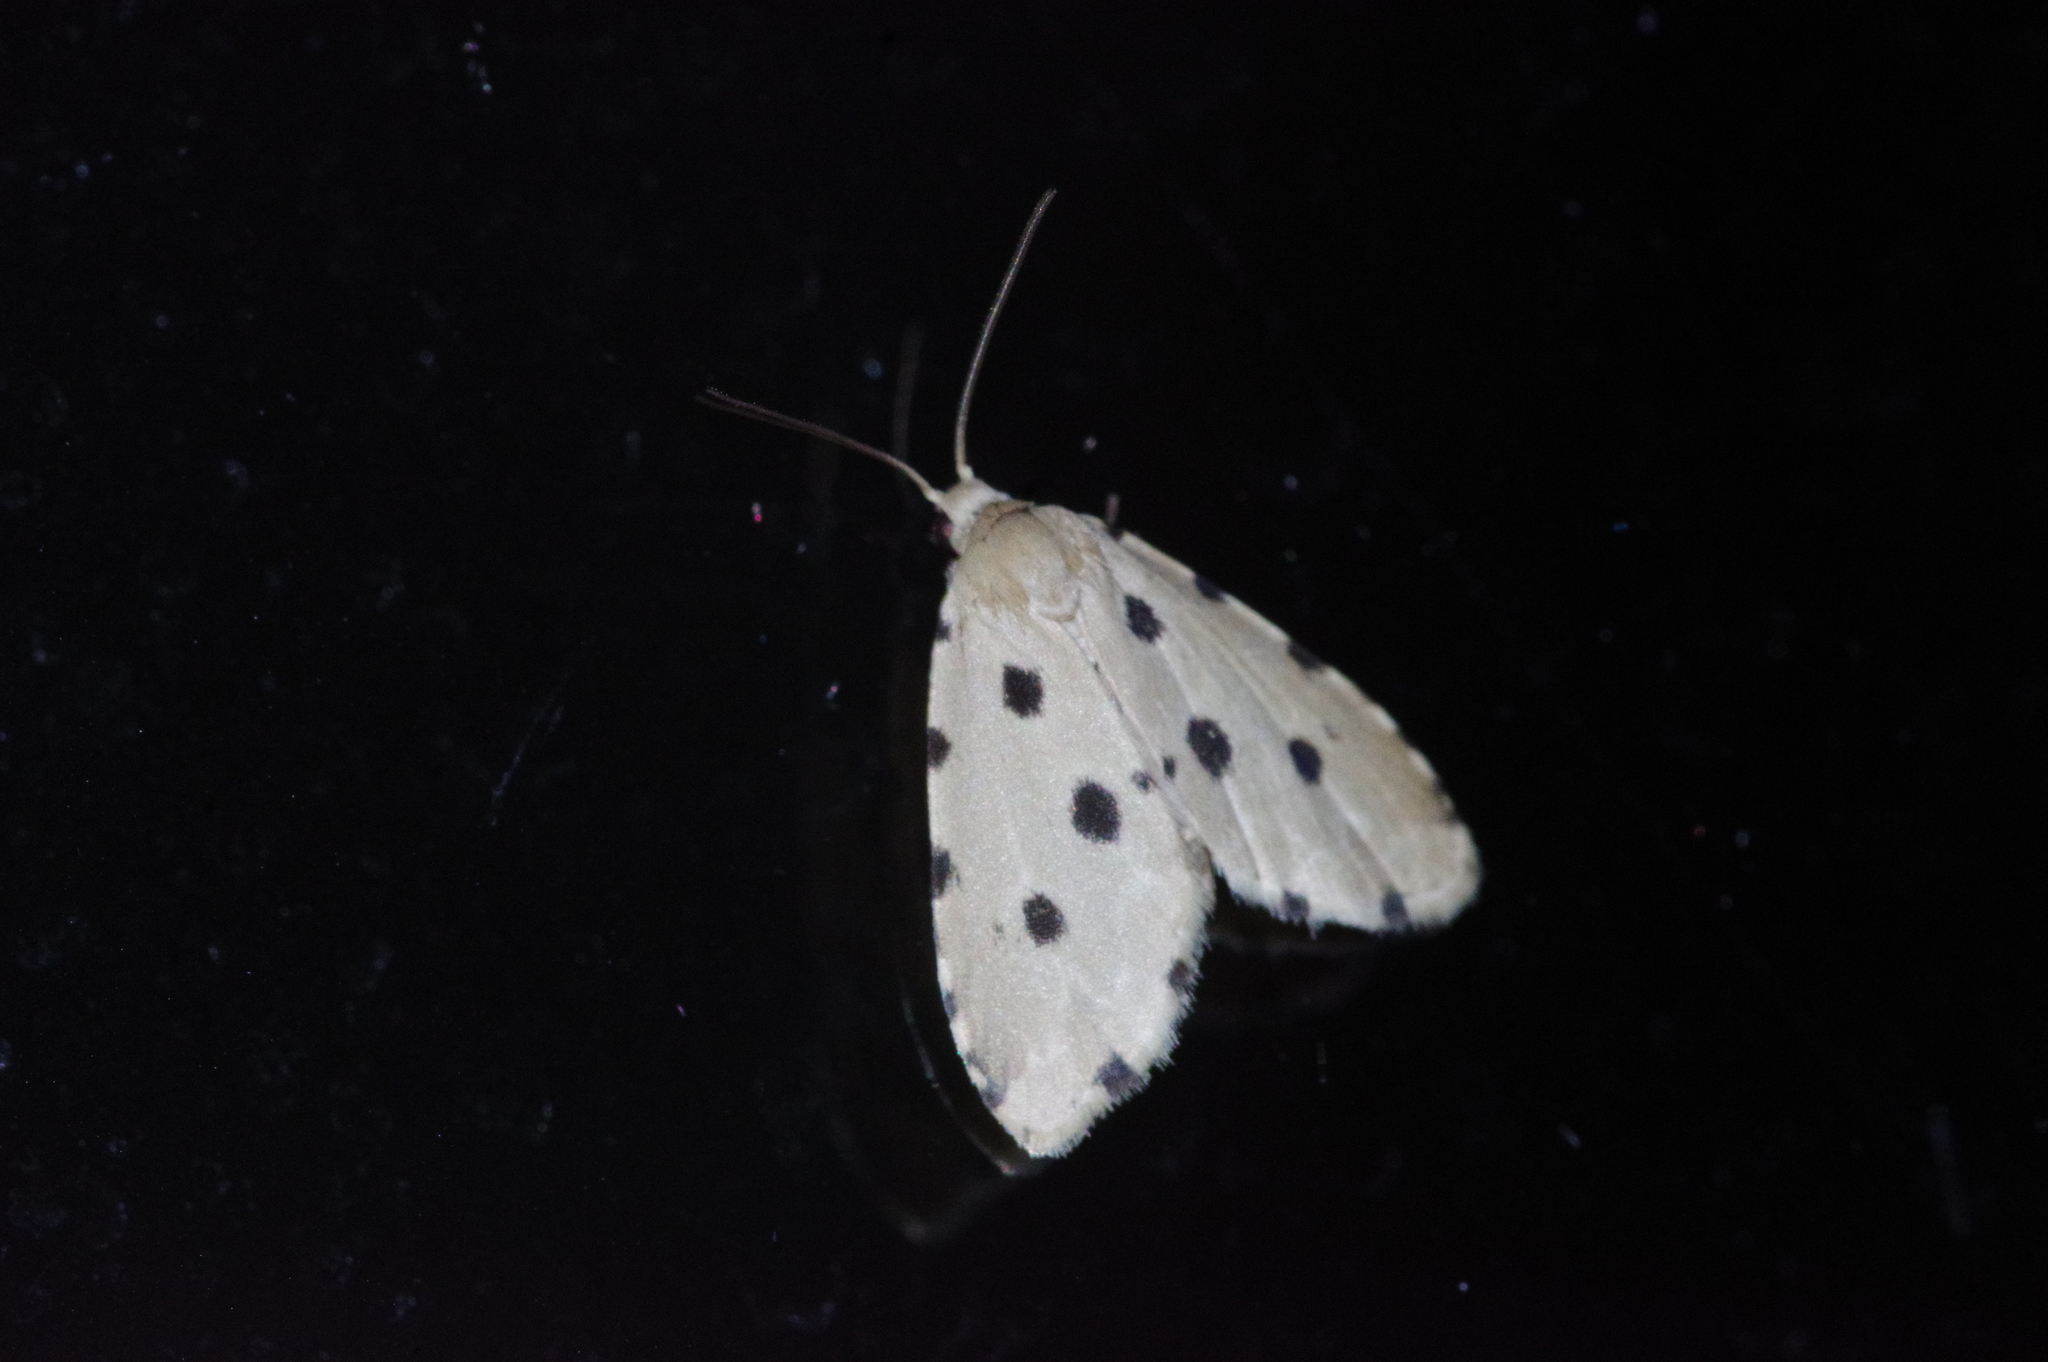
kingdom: Animalia
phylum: Arthropoda
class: Insecta
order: Lepidoptera
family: Noctuidae
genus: Metaemene
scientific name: Metaemene atrigutta
